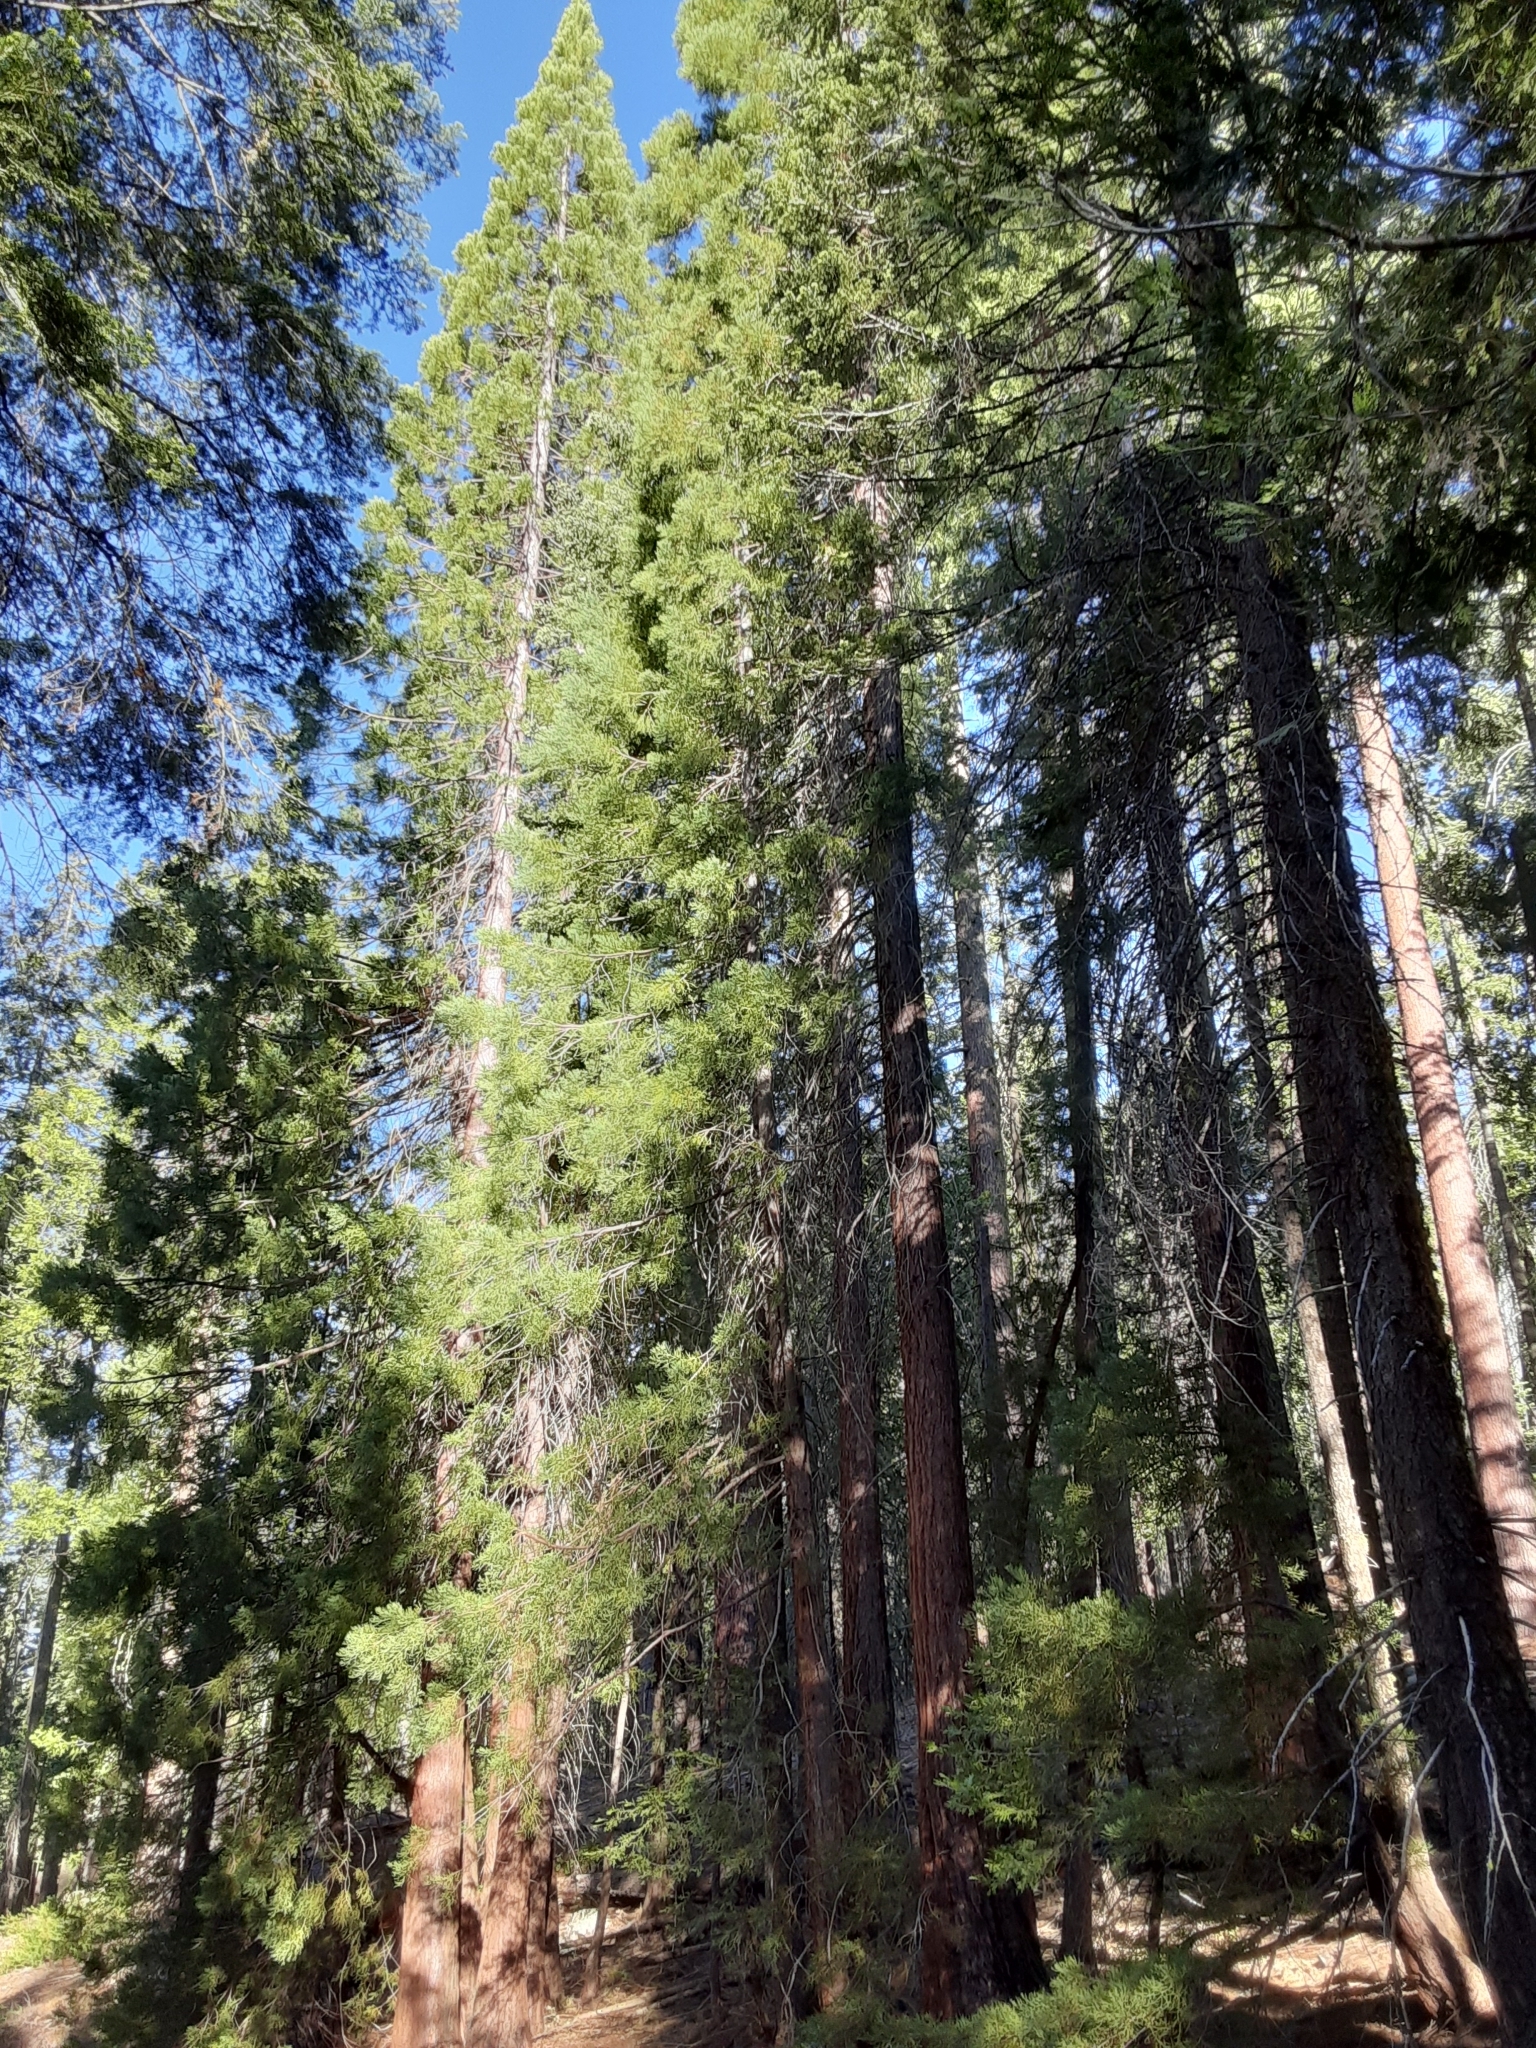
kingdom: Plantae
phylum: Tracheophyta
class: Pinopsida
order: Pinales
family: Cupressaceae
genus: Sequoiadendron
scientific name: Sequoiadendron giganteum
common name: Wellingtonia
